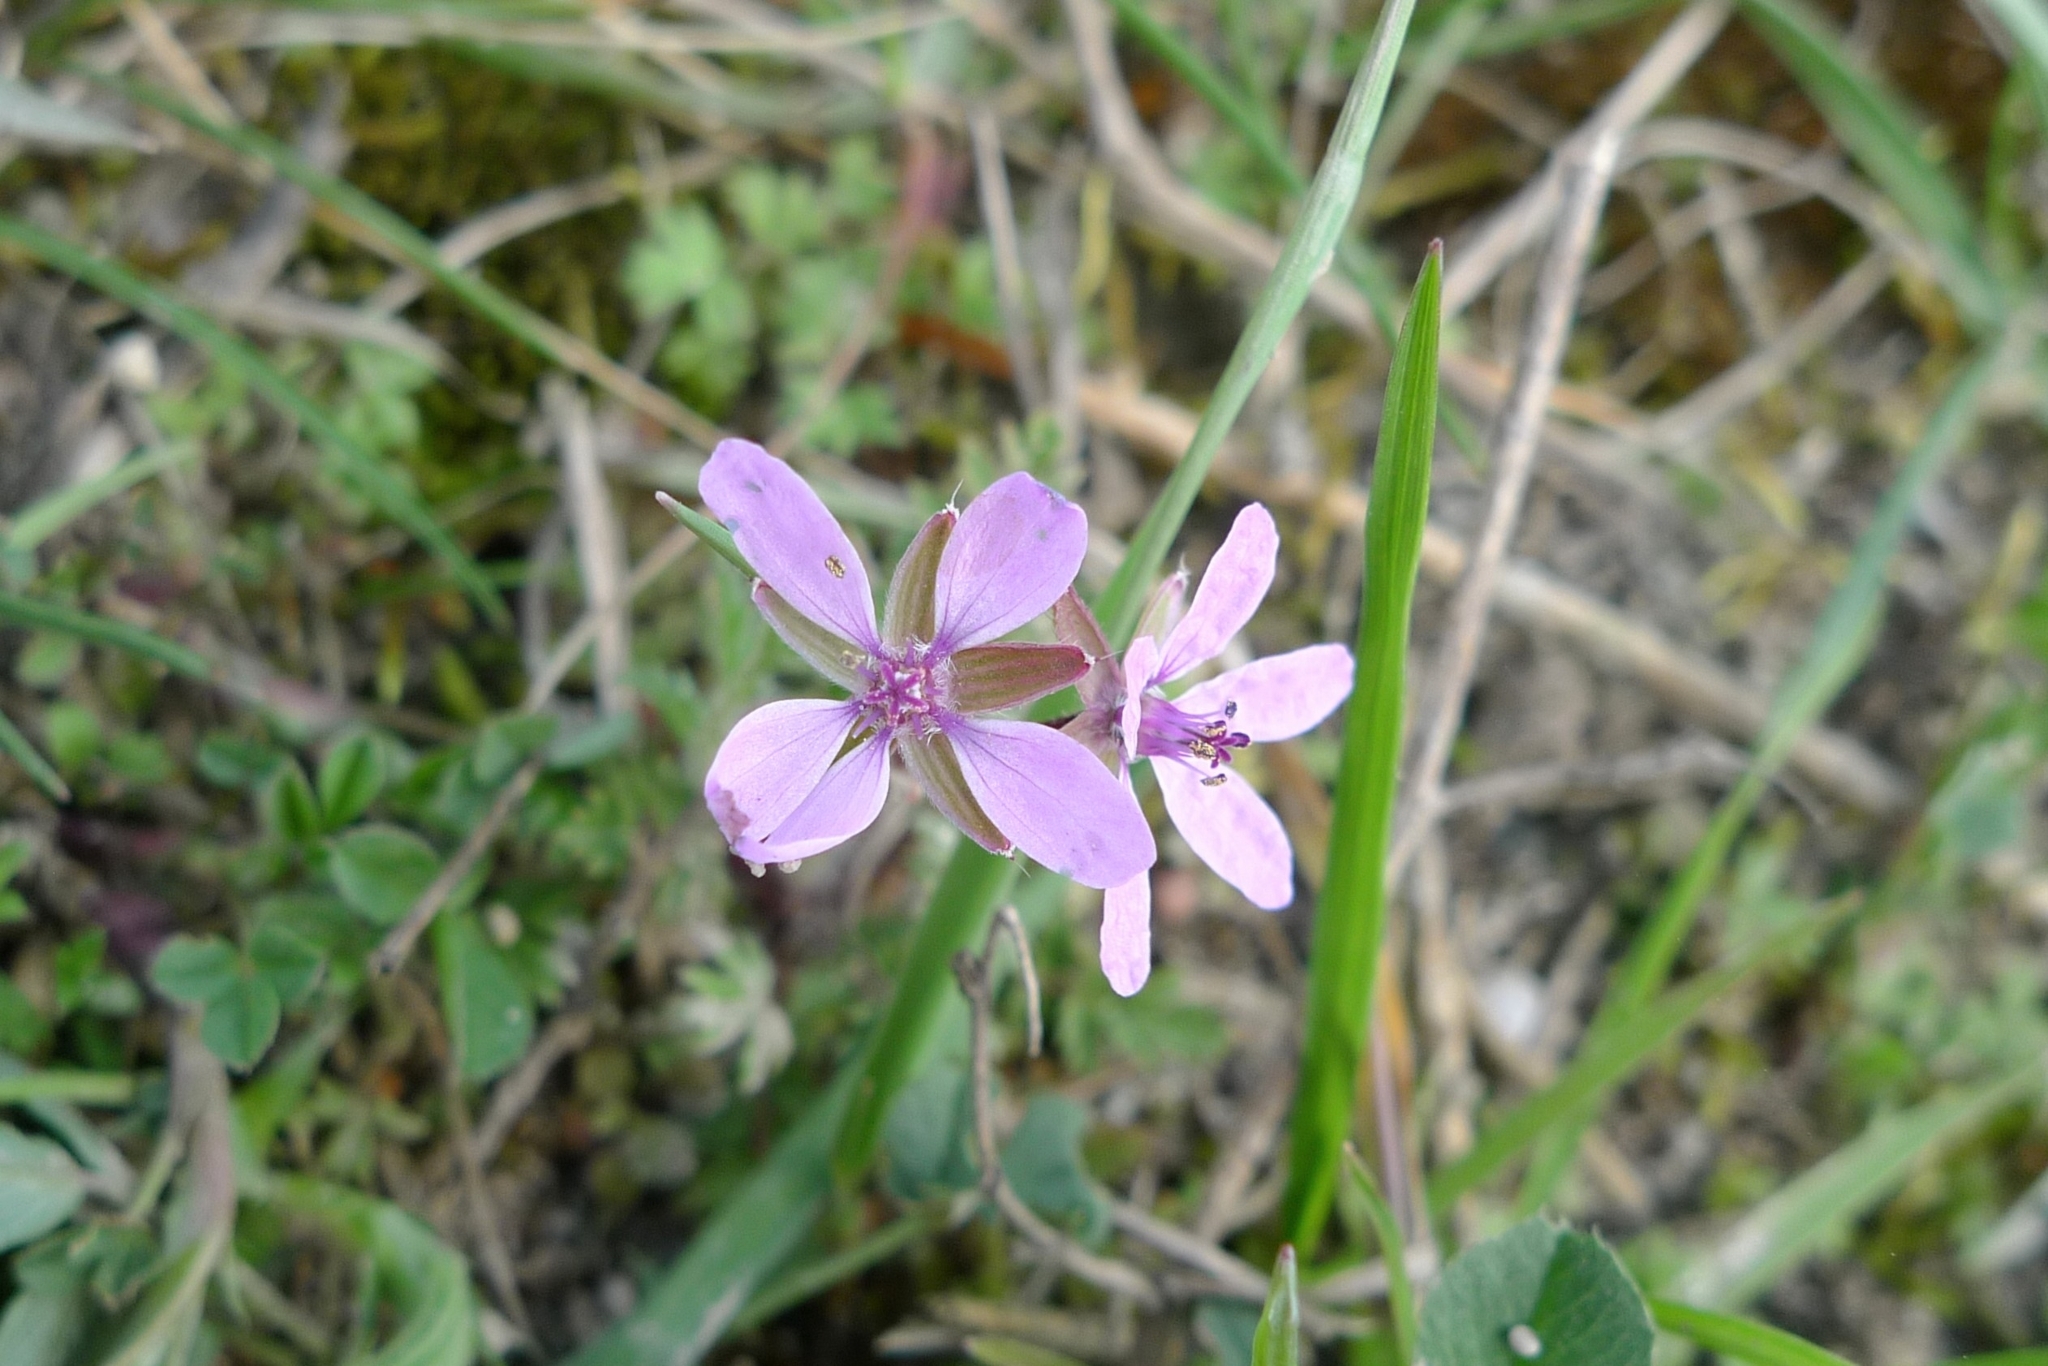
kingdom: Plantae
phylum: Tracheophyta
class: Magnoliopsida
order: Geraniales
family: Geraniaceae
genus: Erodium
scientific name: Erodium cicutarium
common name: Common stork's-bill
